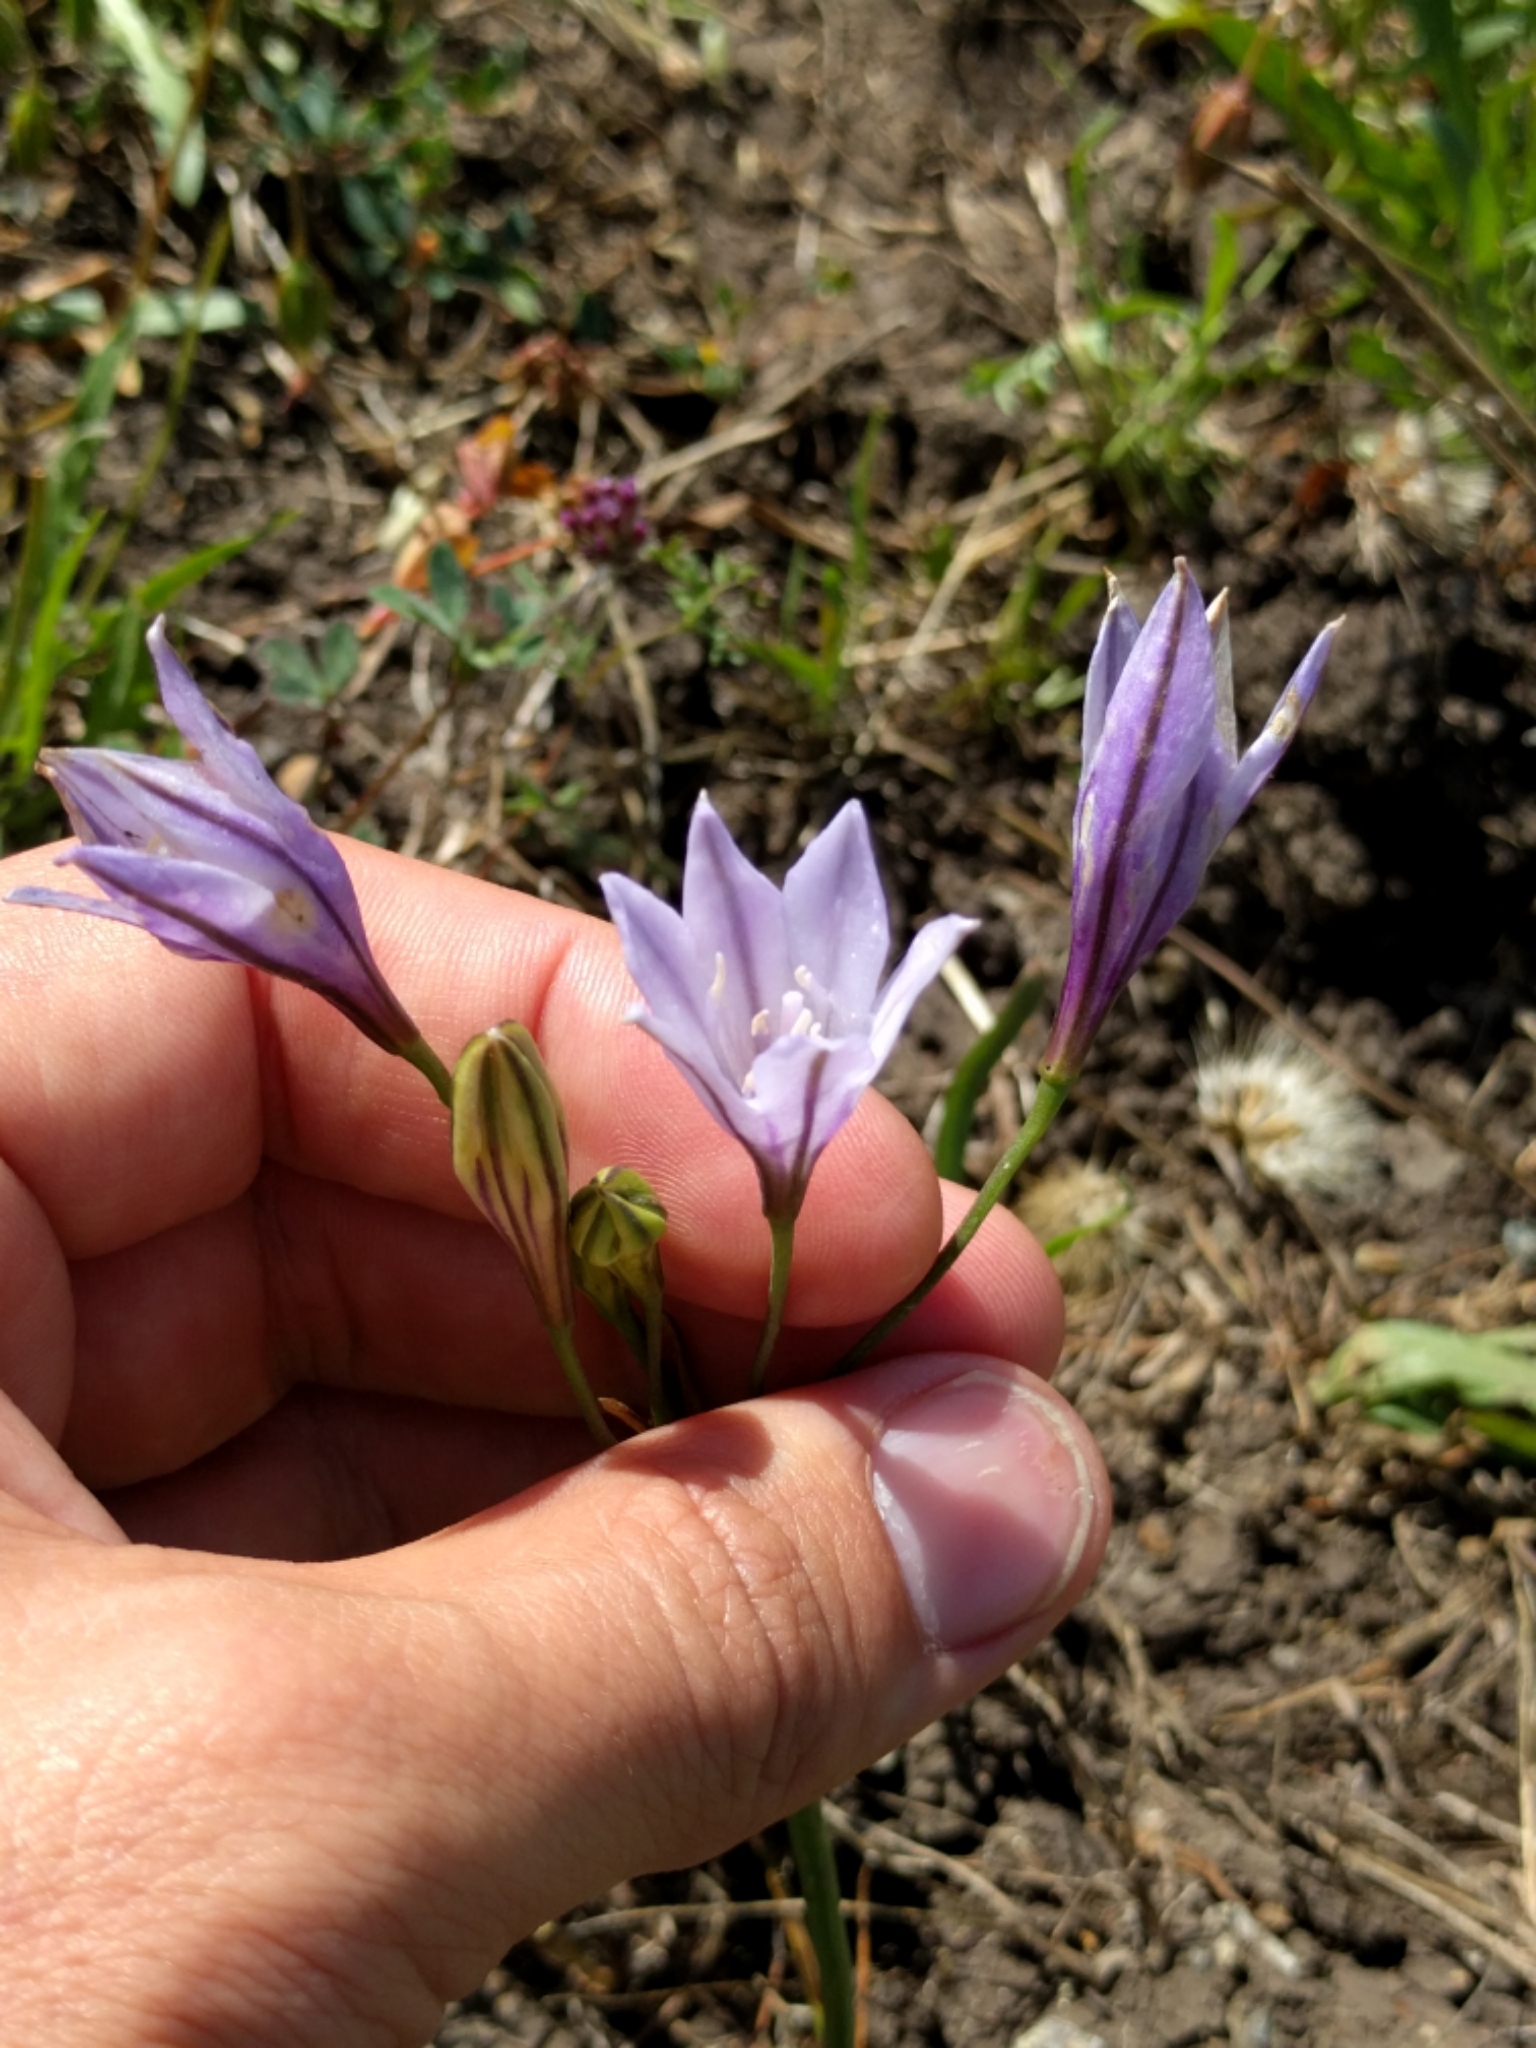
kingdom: Plantae
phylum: Tracheophyta
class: Liliopsida
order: Asparagales
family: Asparagaceae
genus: Triteleia
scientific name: Triteleia laxa
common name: Triplet-lily
